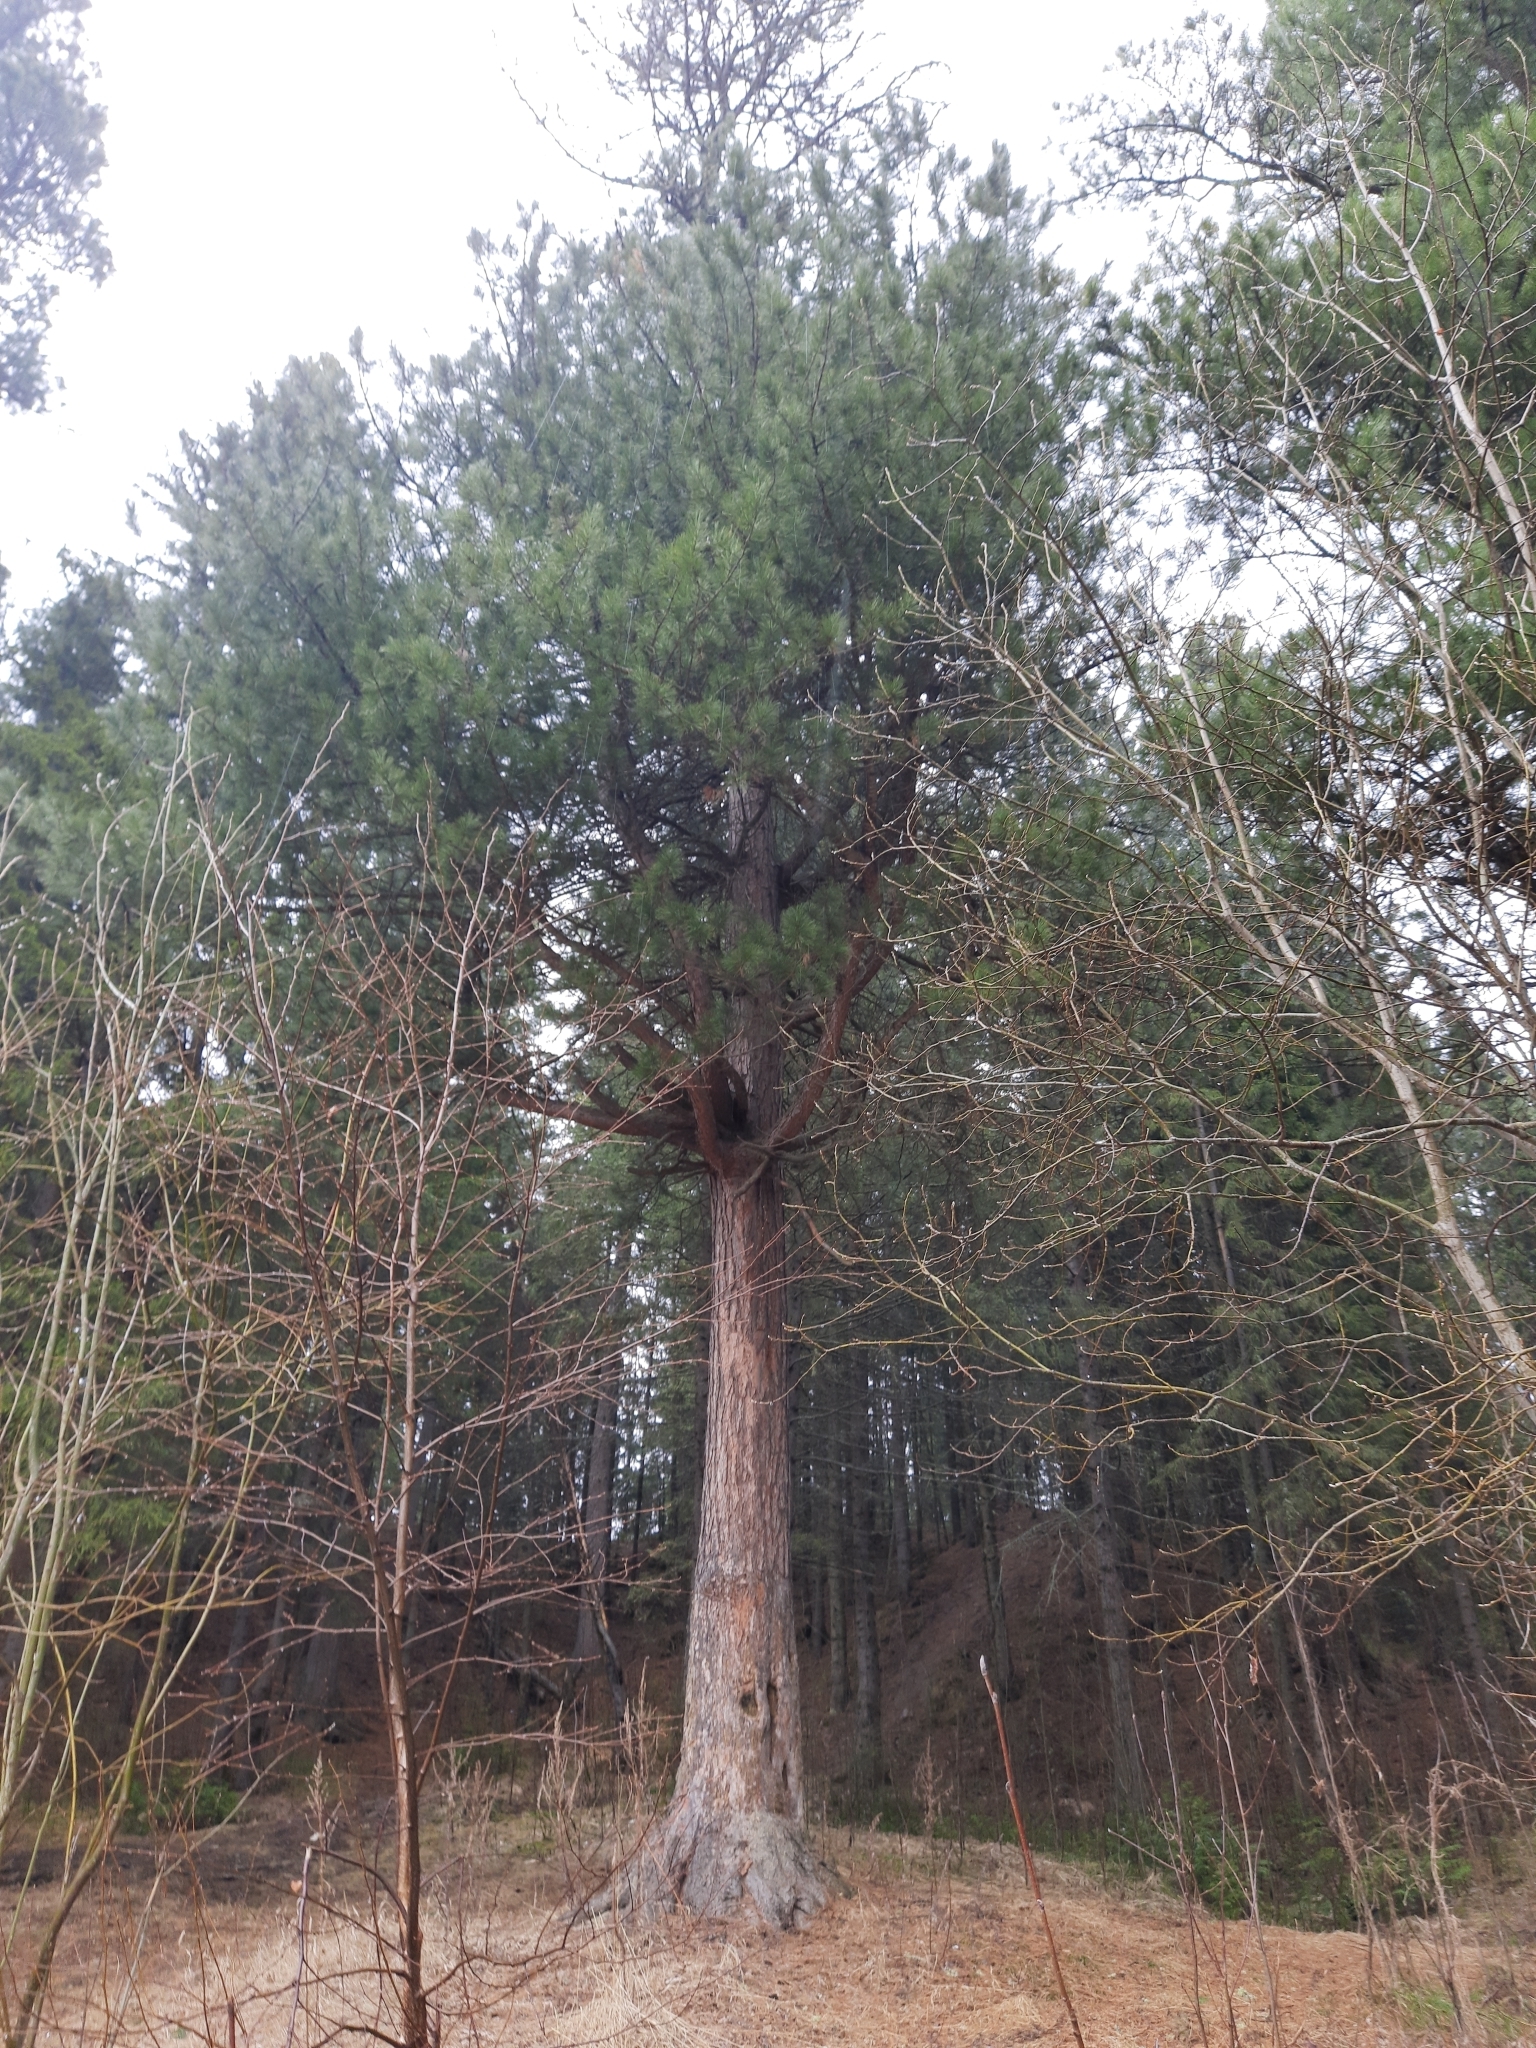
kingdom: Plantae
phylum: Tracheophyta
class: Pinopsida
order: Pinales
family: Pinaceae
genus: Pinus
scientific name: Pinus sibirica
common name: Siberian pine
